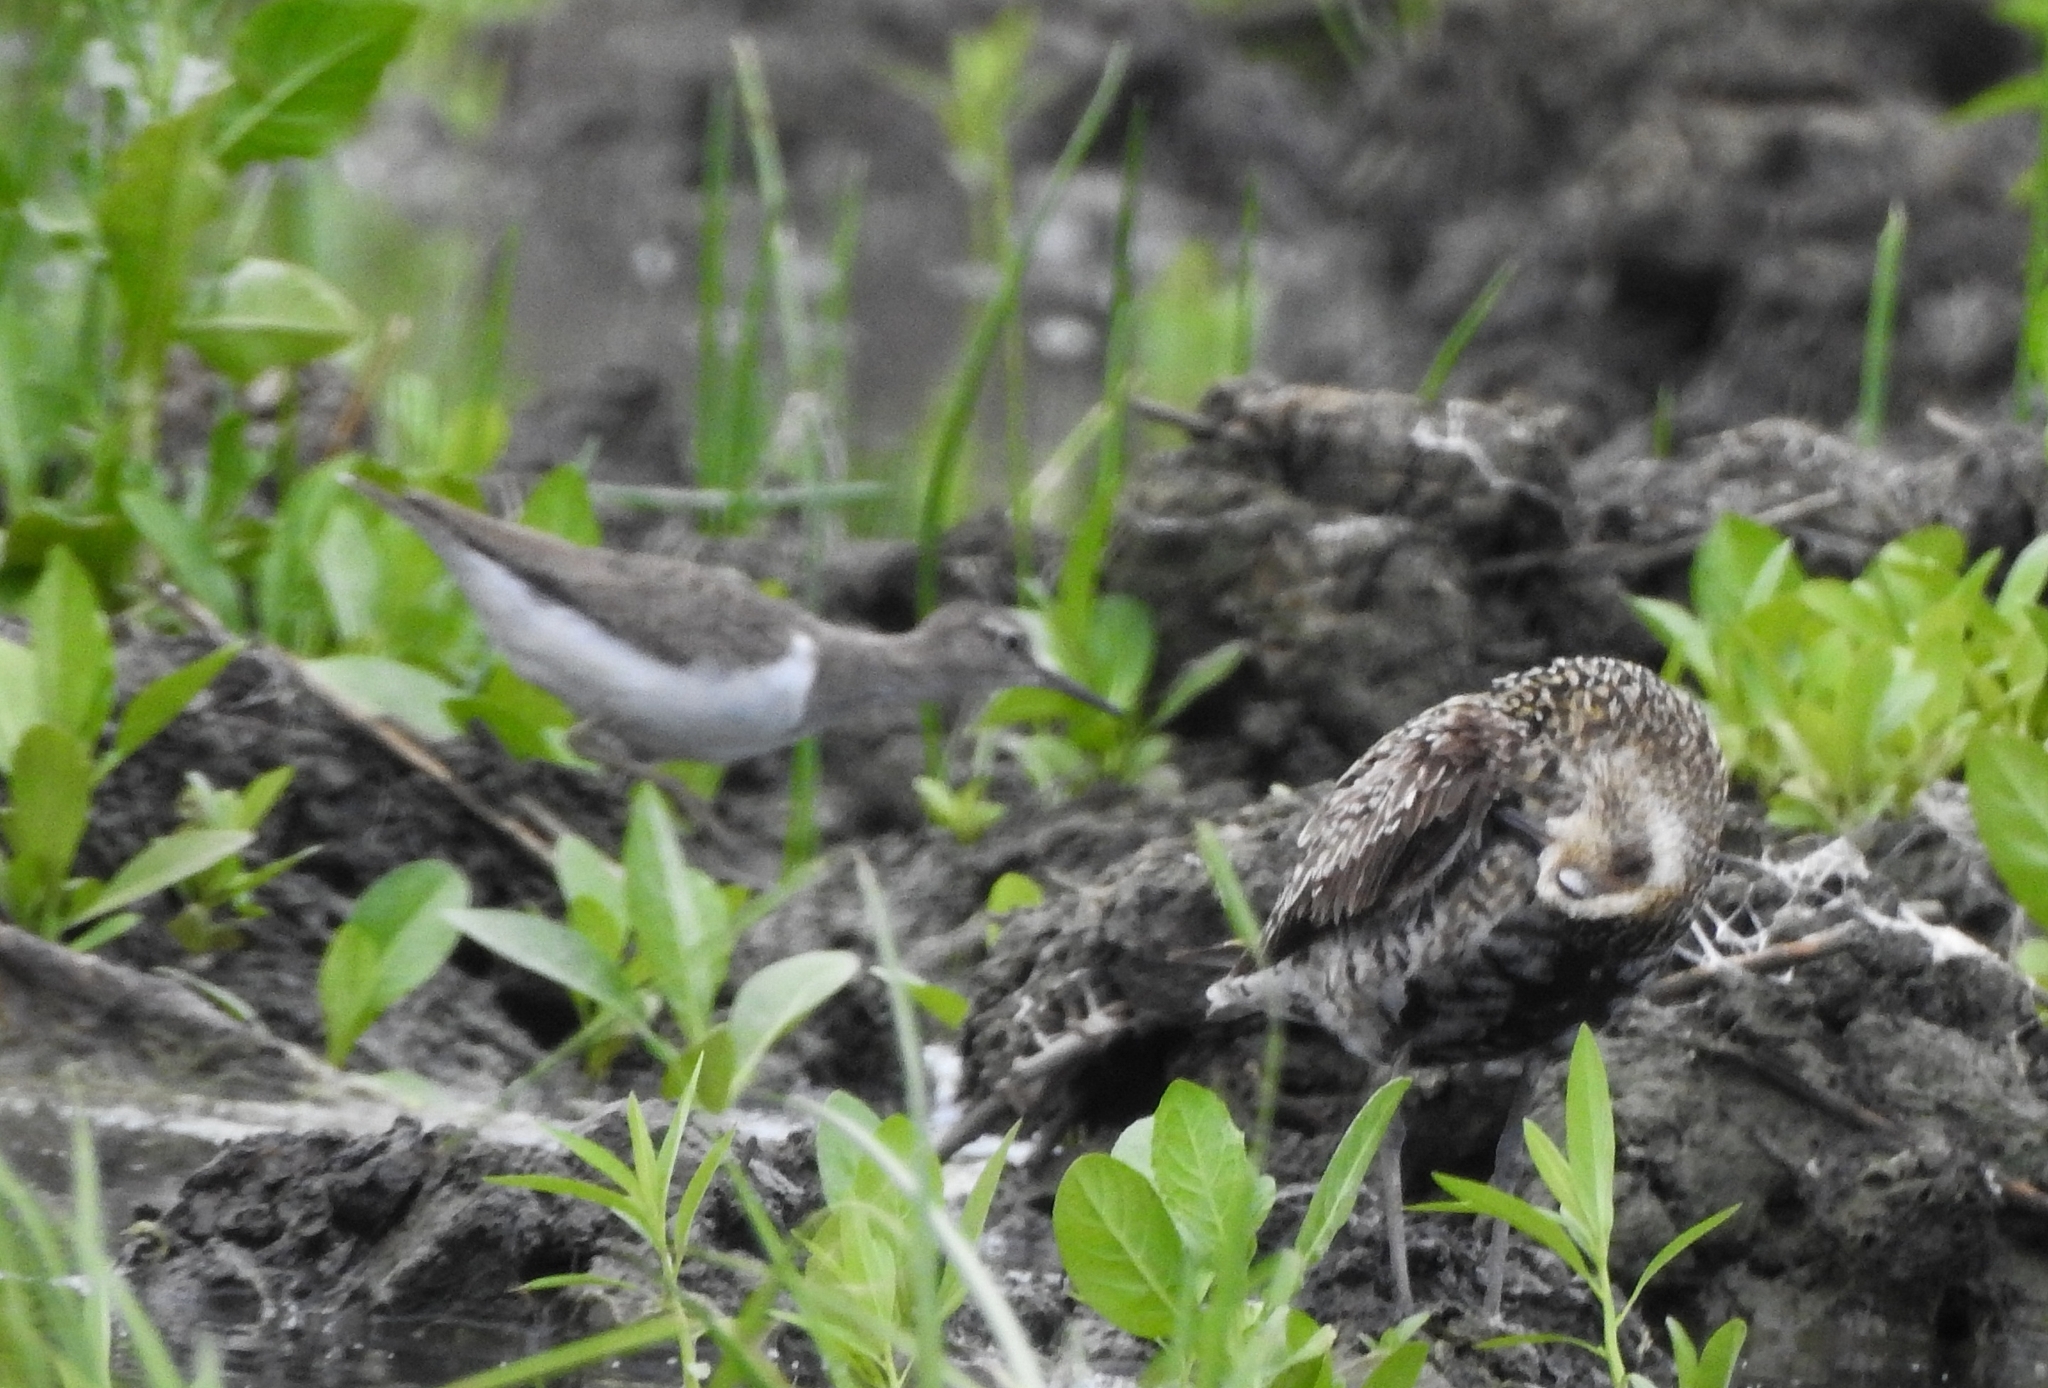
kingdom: Animalia
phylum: Chordata
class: Aves
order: Charadriiformes
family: Scolopacidae
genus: Actitis
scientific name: Actitis hypoleucos
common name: Common sandpiper
